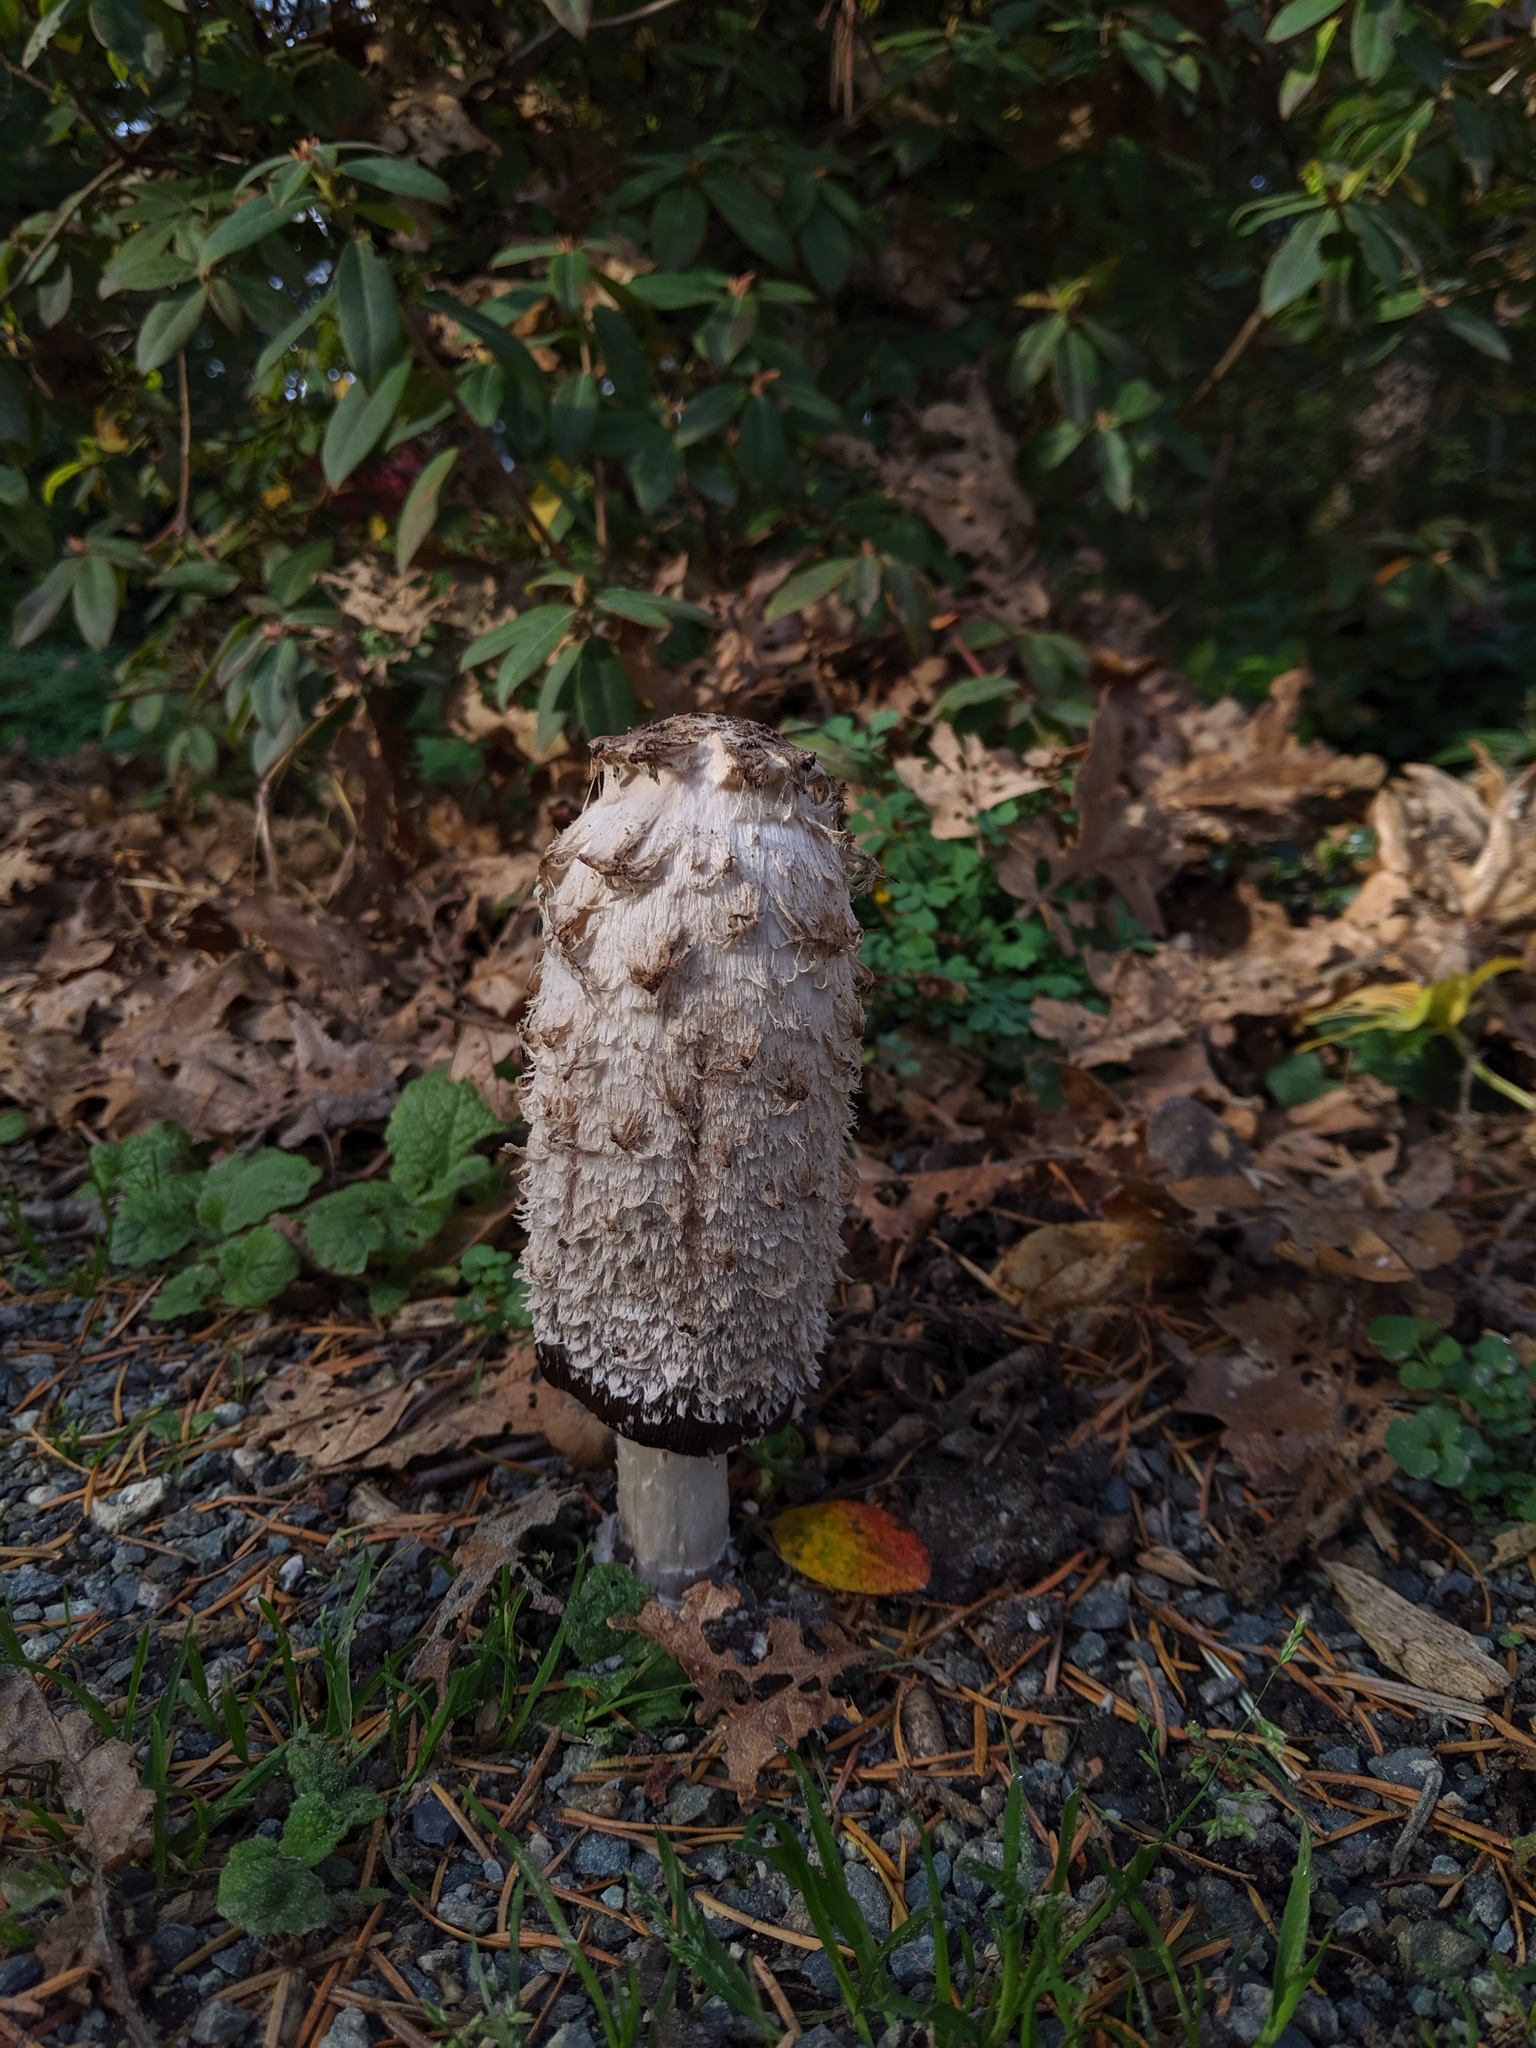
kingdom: Fungi
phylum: Basidiomycota
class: Agaricomycetes
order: Agaricales
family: Agaricaceae
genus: Coprinus
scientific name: Coprinus comatus
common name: Lawyer's wig
